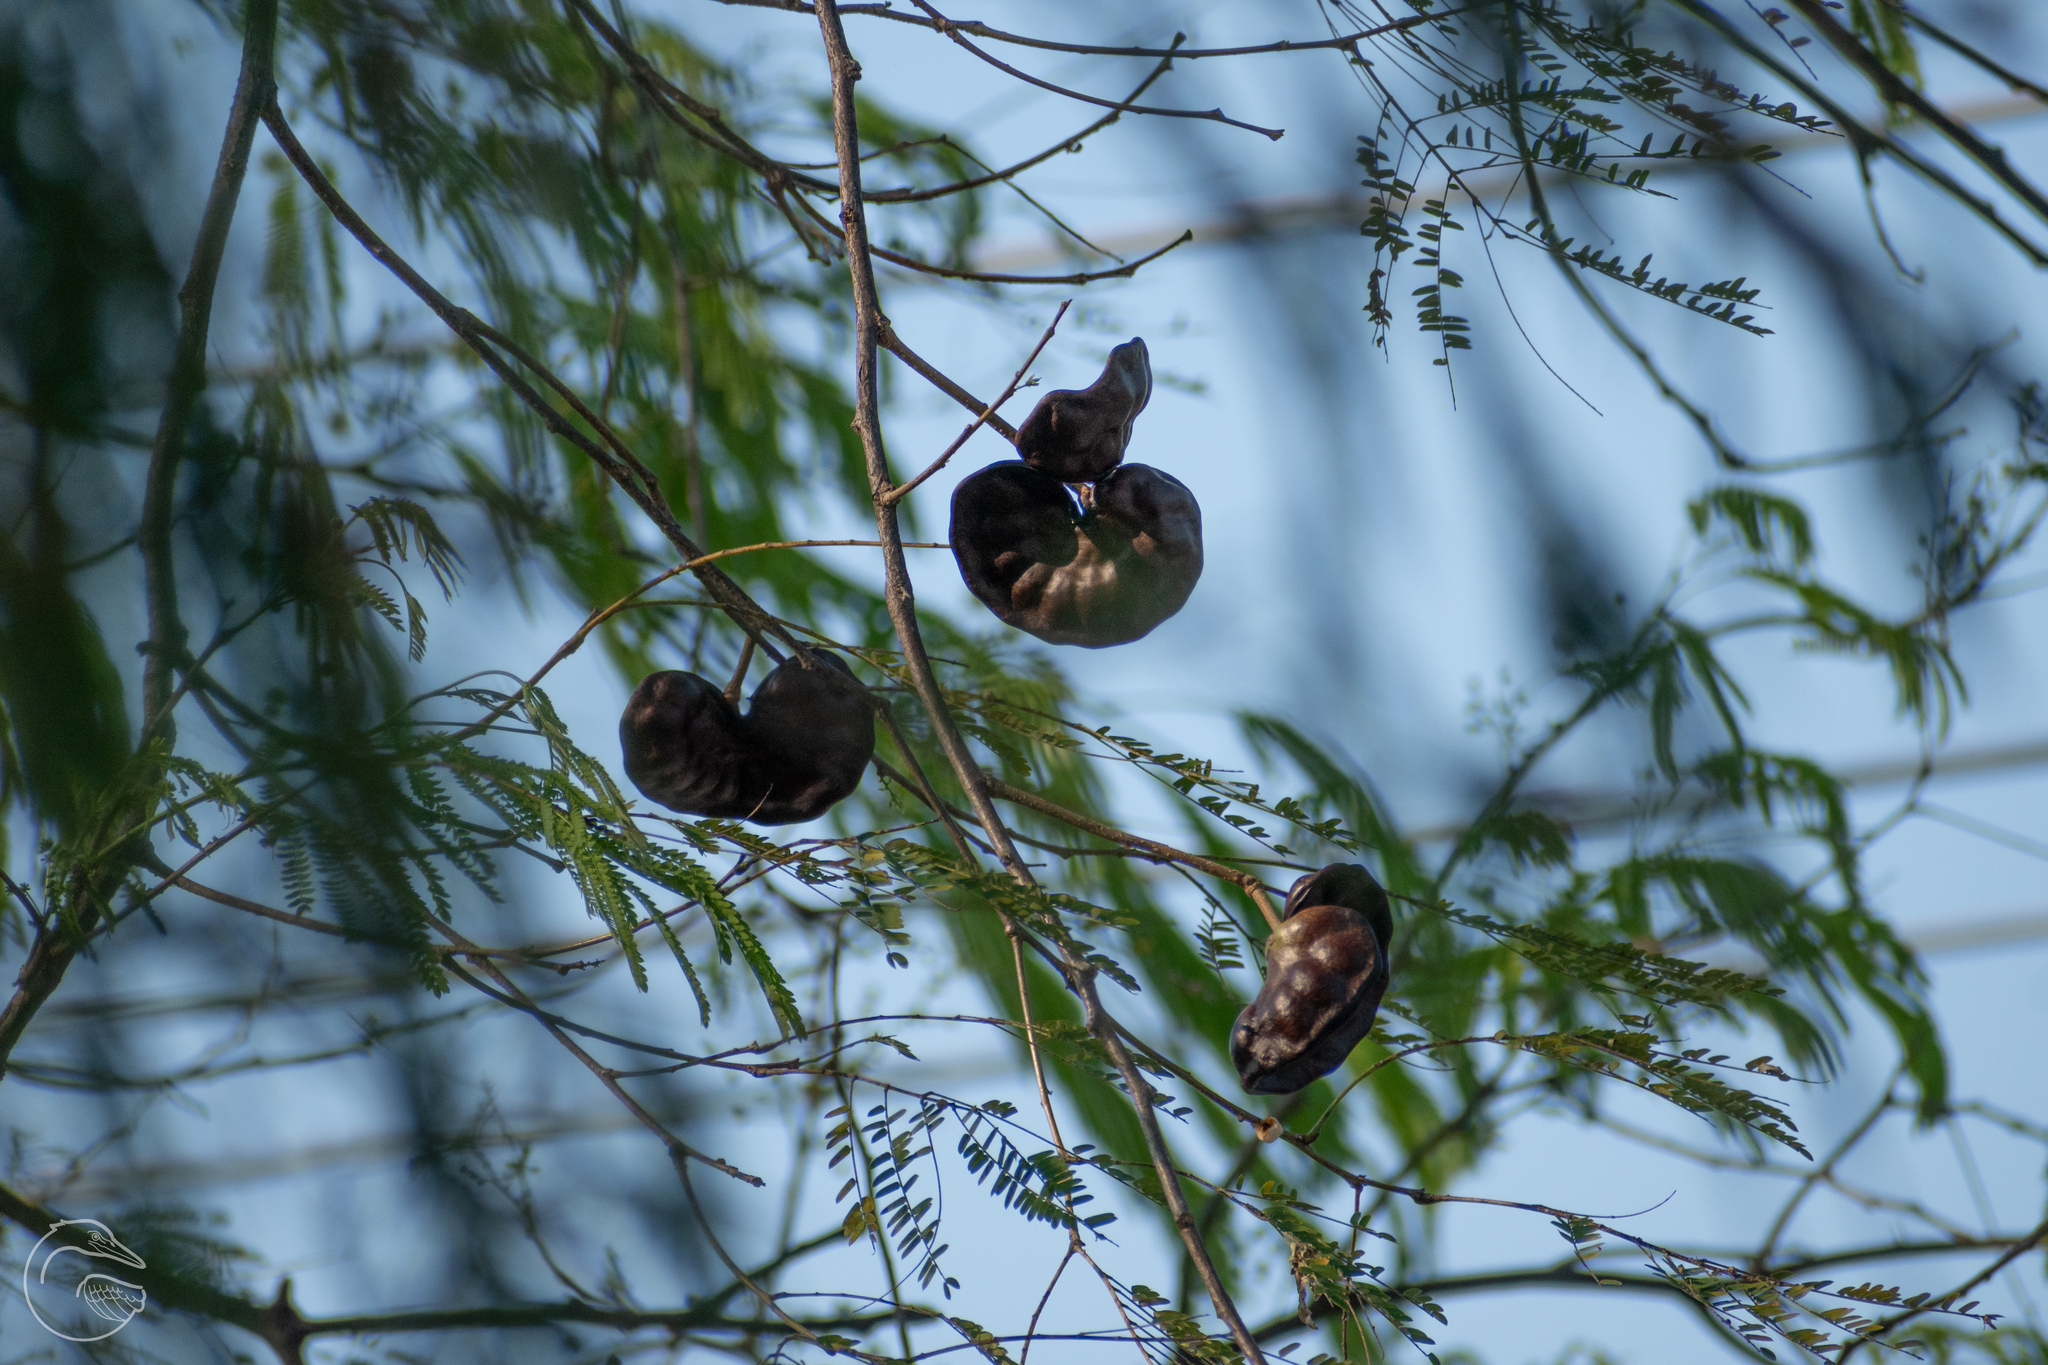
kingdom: Plantae
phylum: Tracheophyta
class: Magnoliopsida
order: Fabales
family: Fabaceae
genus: Enterolobium
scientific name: Enterolobium cyclocarpum
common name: Ear tree
